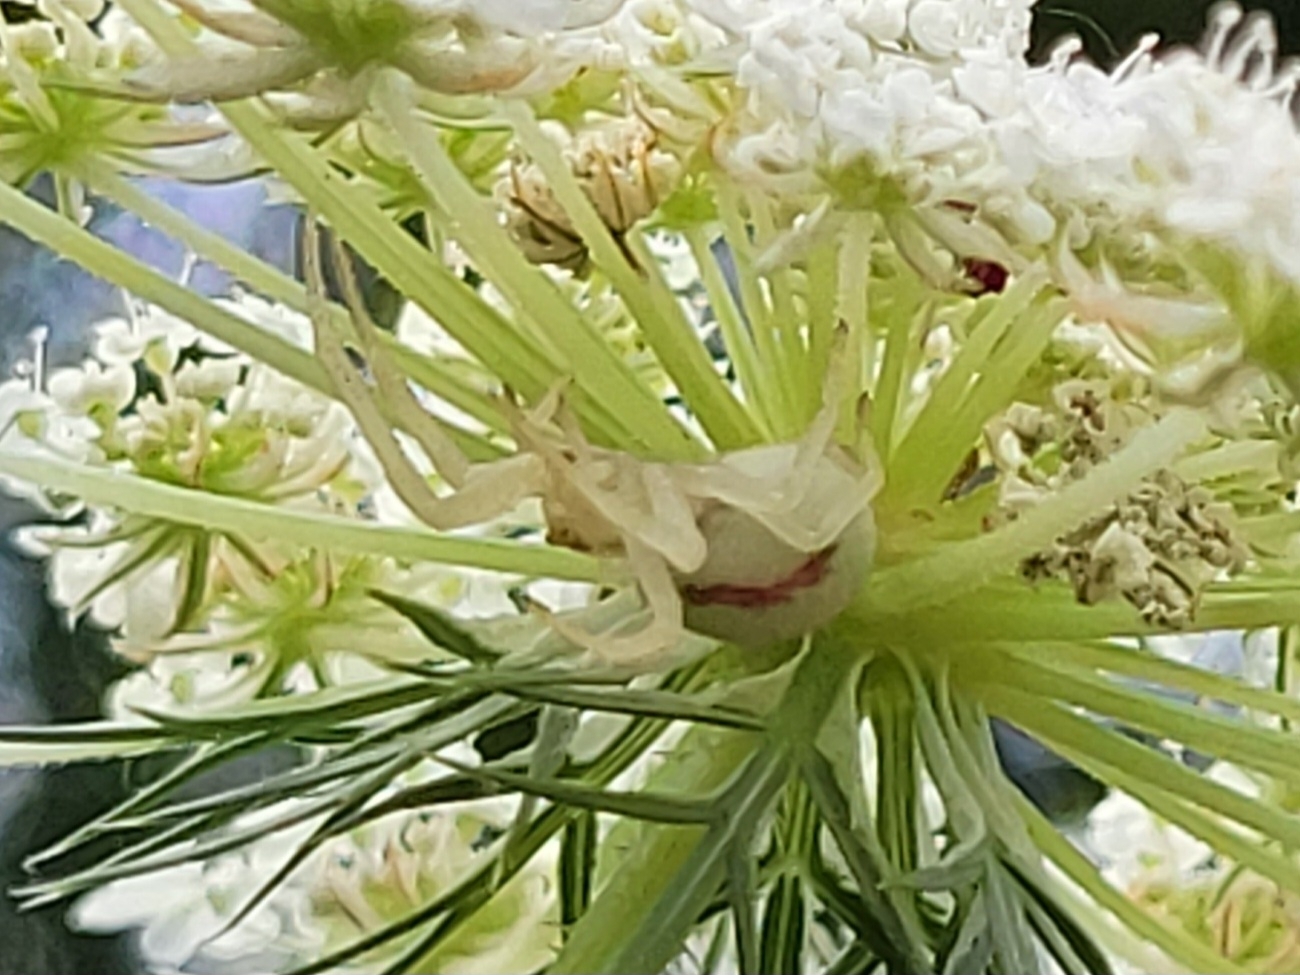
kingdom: Animalia
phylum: Arthropoda
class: Arachnida
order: Araneae
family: Thomisidae
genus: Misumena
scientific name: Misumena vatia
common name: Goldenrod crab spider
